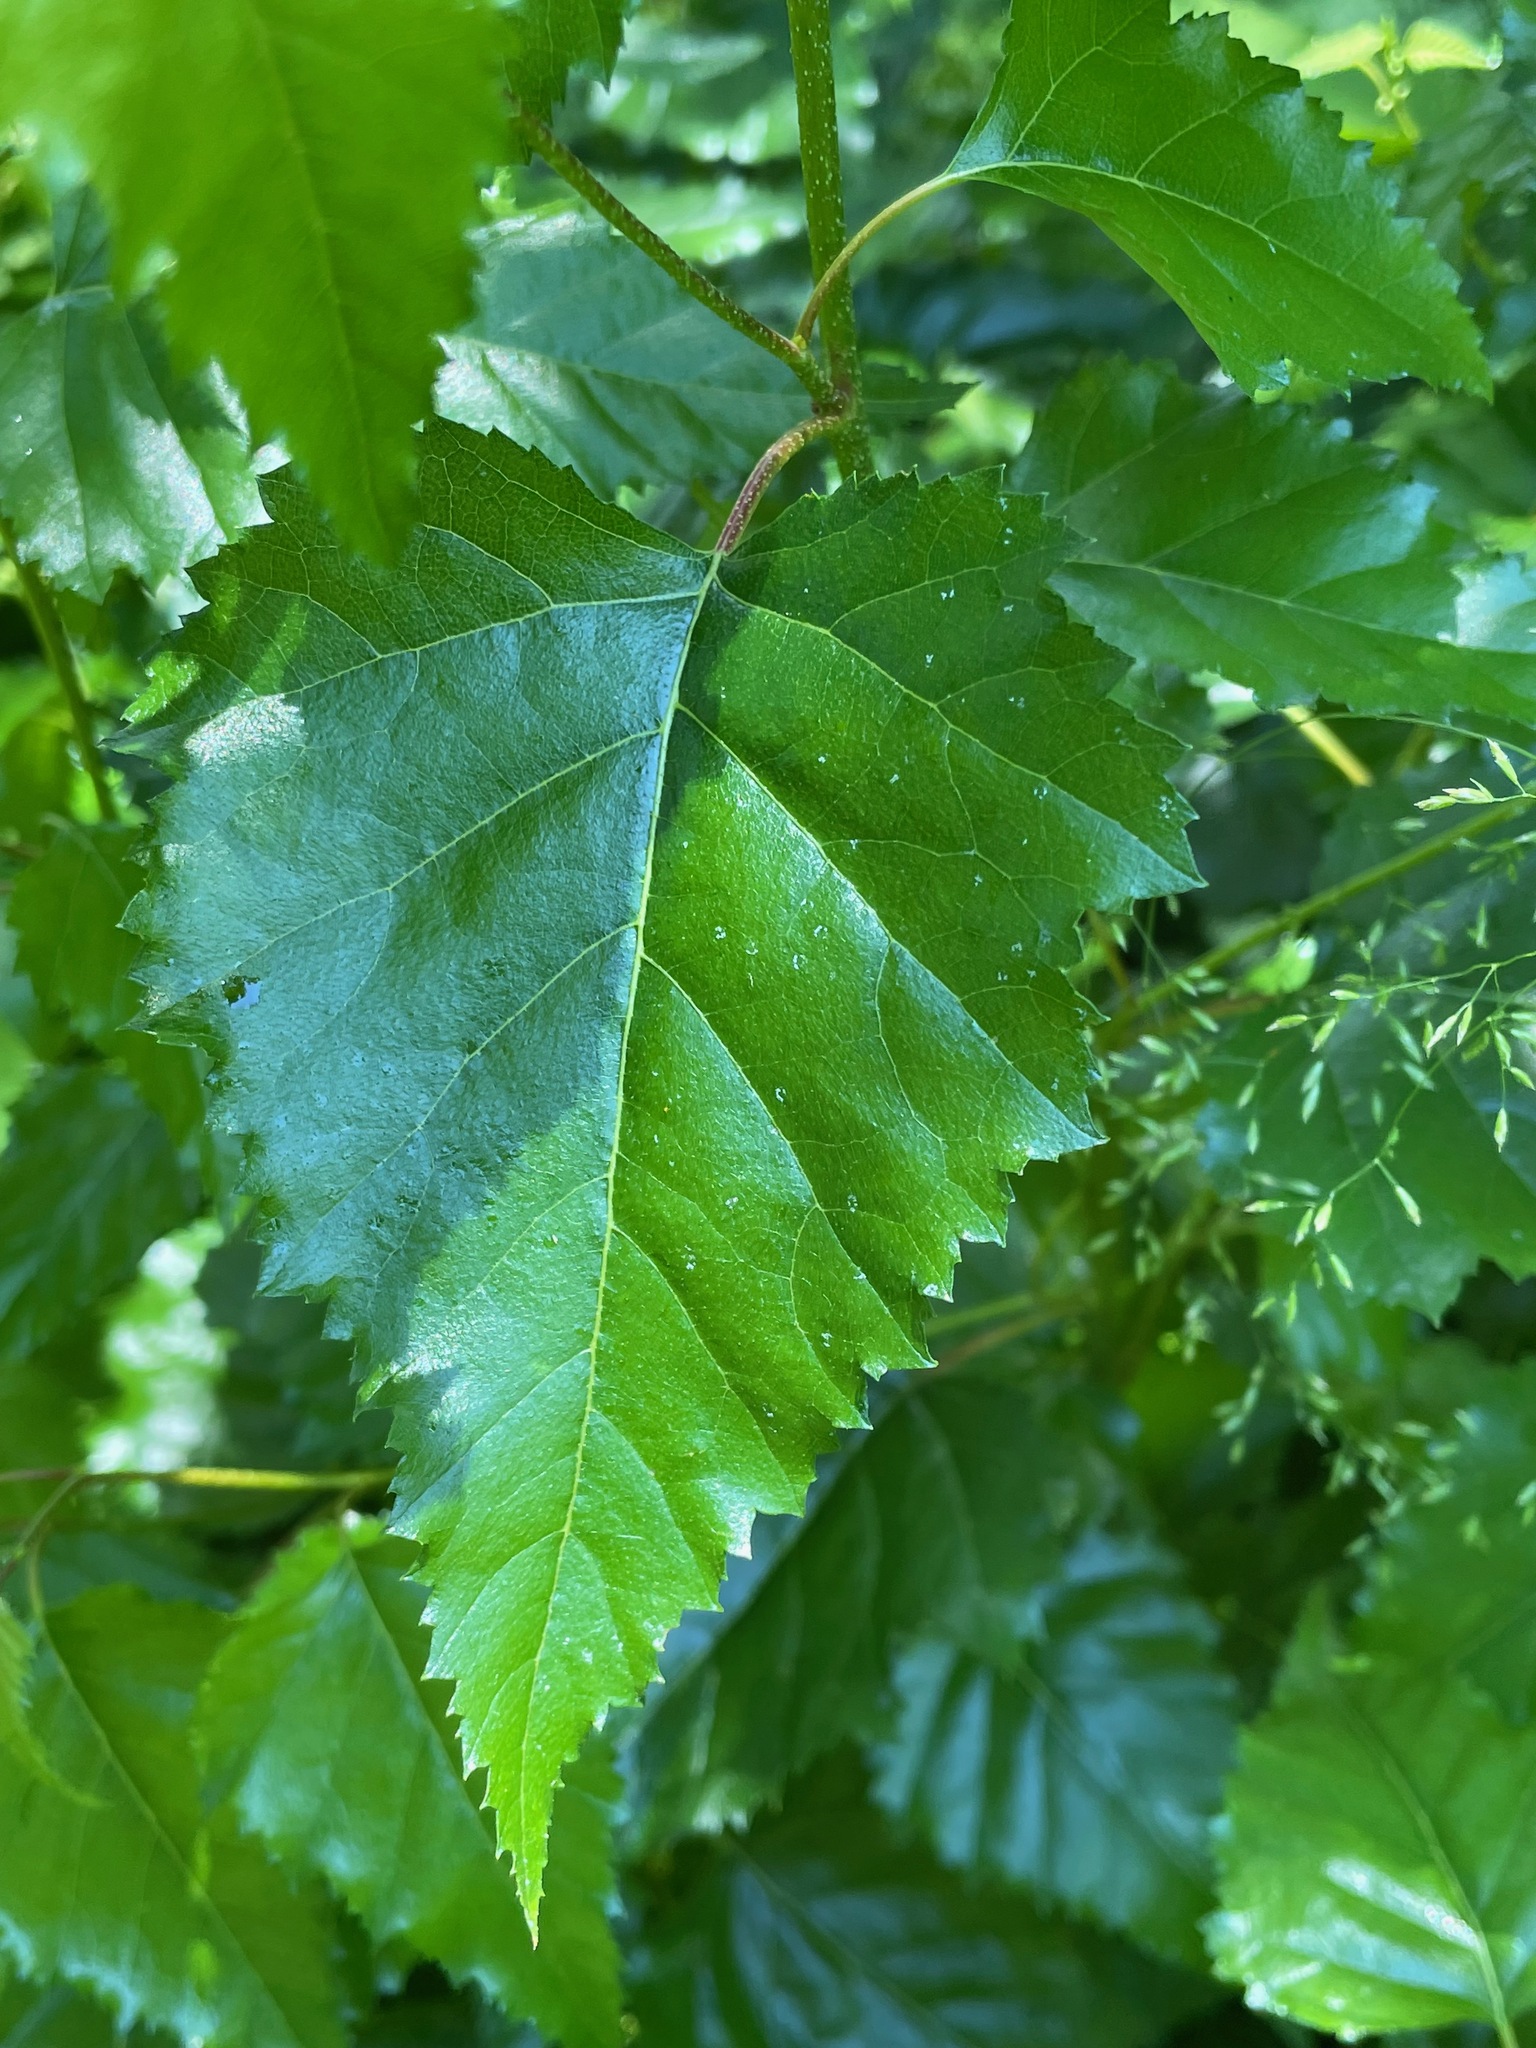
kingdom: Plantae
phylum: Tracheophyta
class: Magnoliopsida
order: Fagales
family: Betulaceae
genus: Betula
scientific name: Betula populifolia
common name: Fire birch
